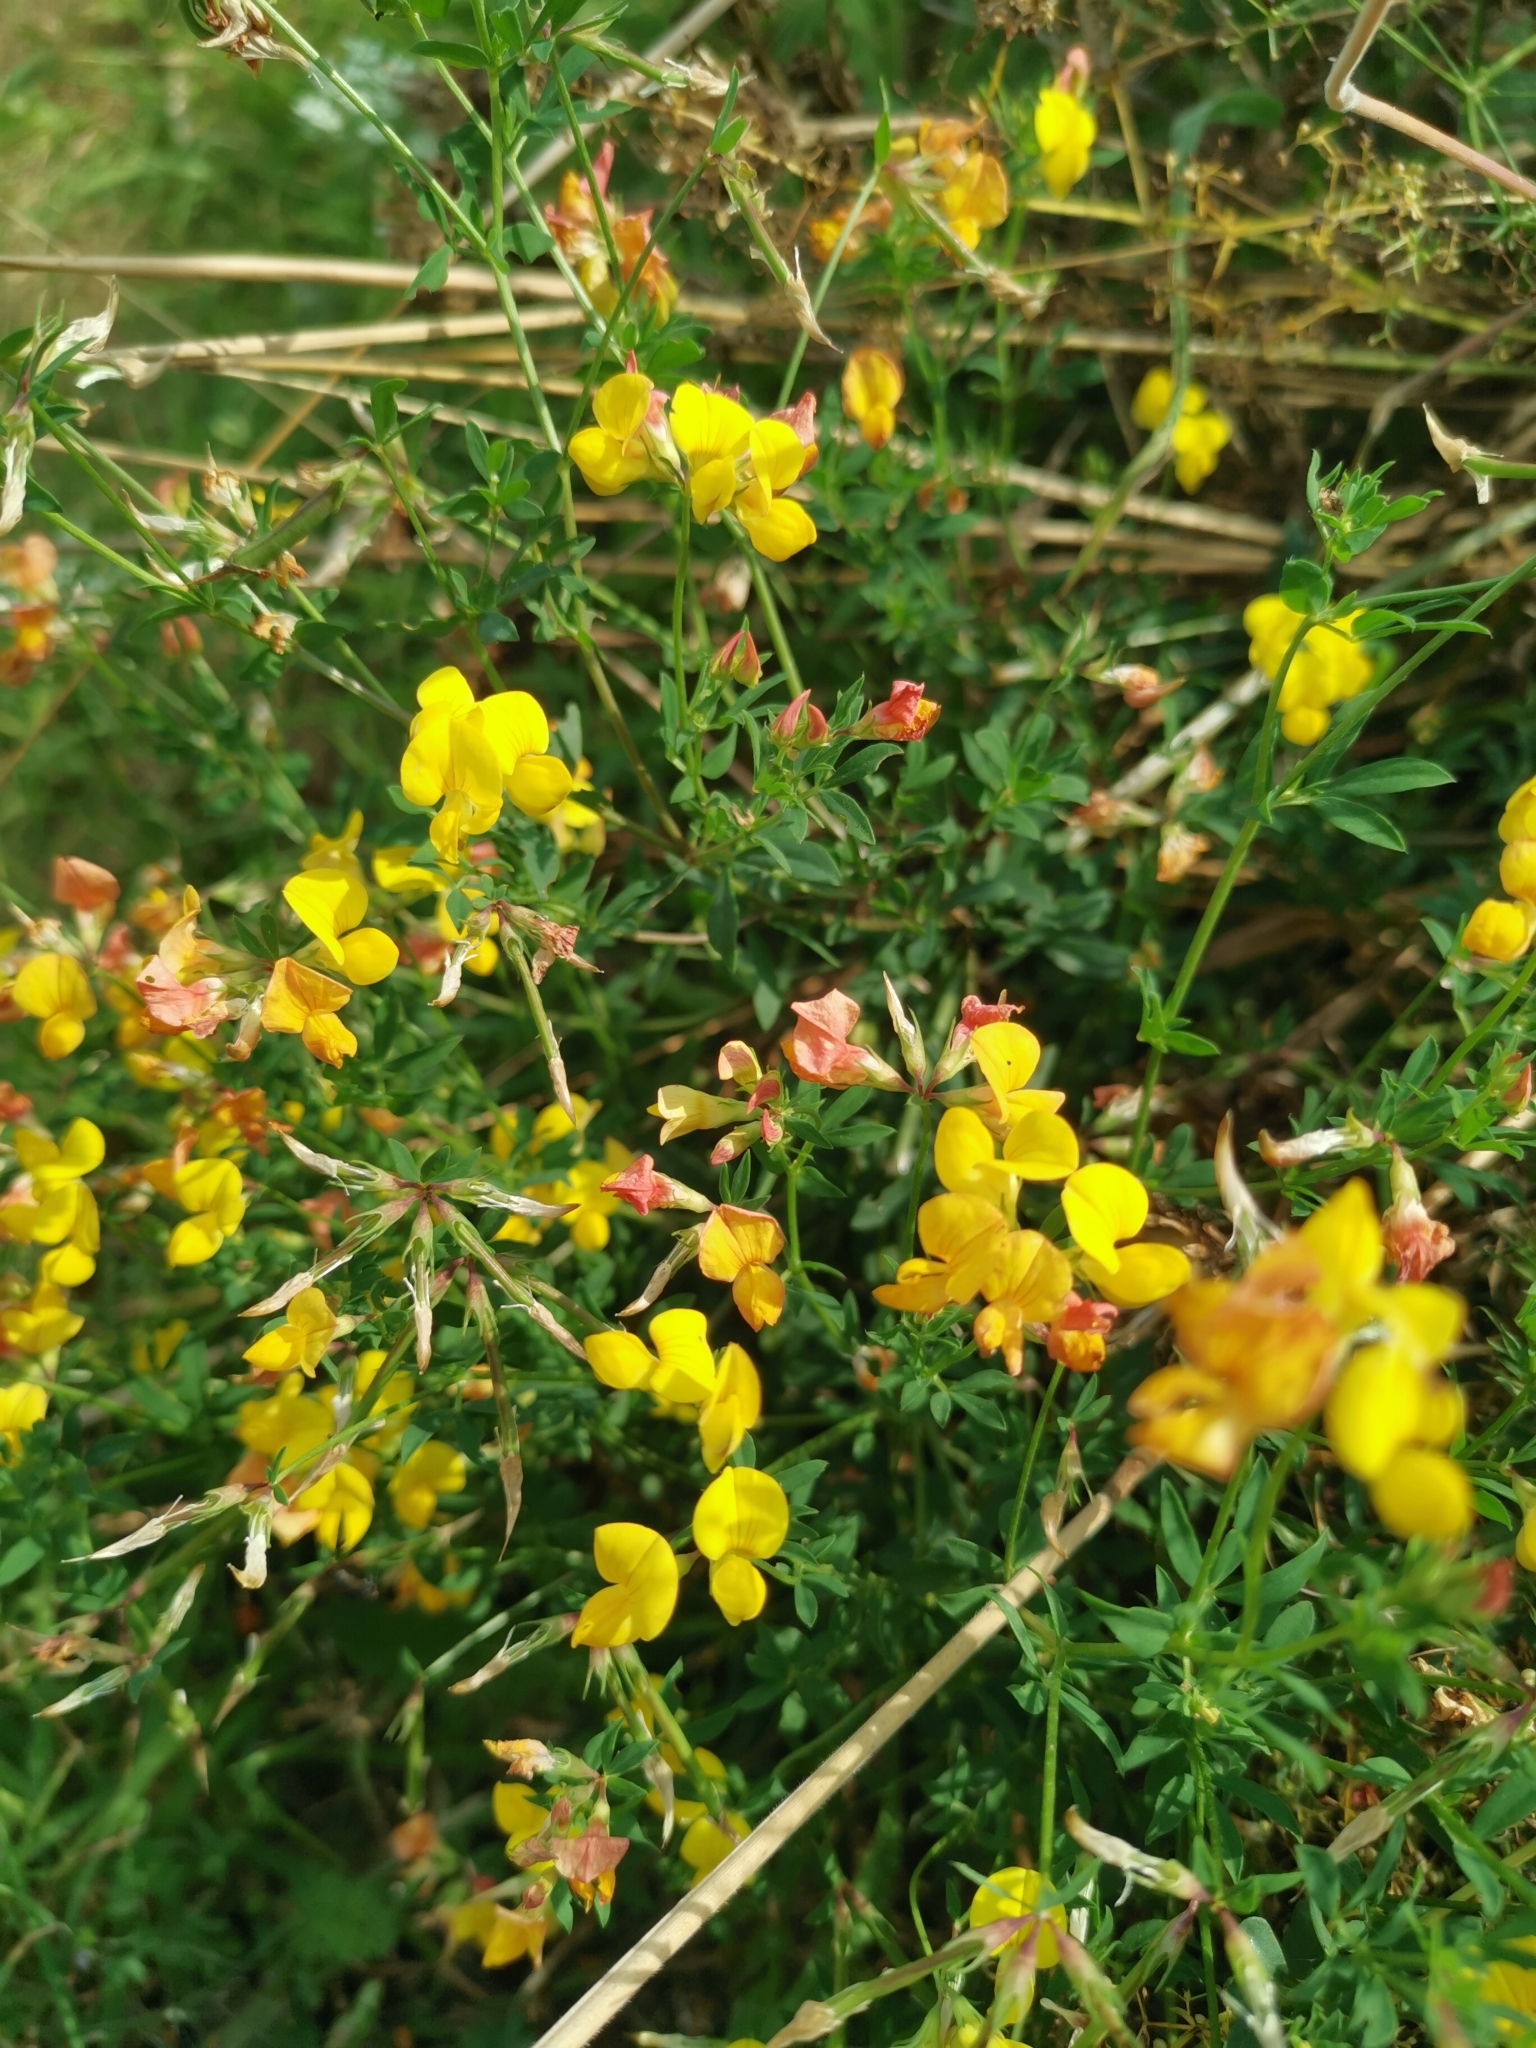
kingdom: Plantae
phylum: Tracheophyta
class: Magnoliopsida
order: Fabales
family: Fabaceae
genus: Lotus
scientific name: Lotus corniculatus
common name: Common bird's-foot-trefoil
